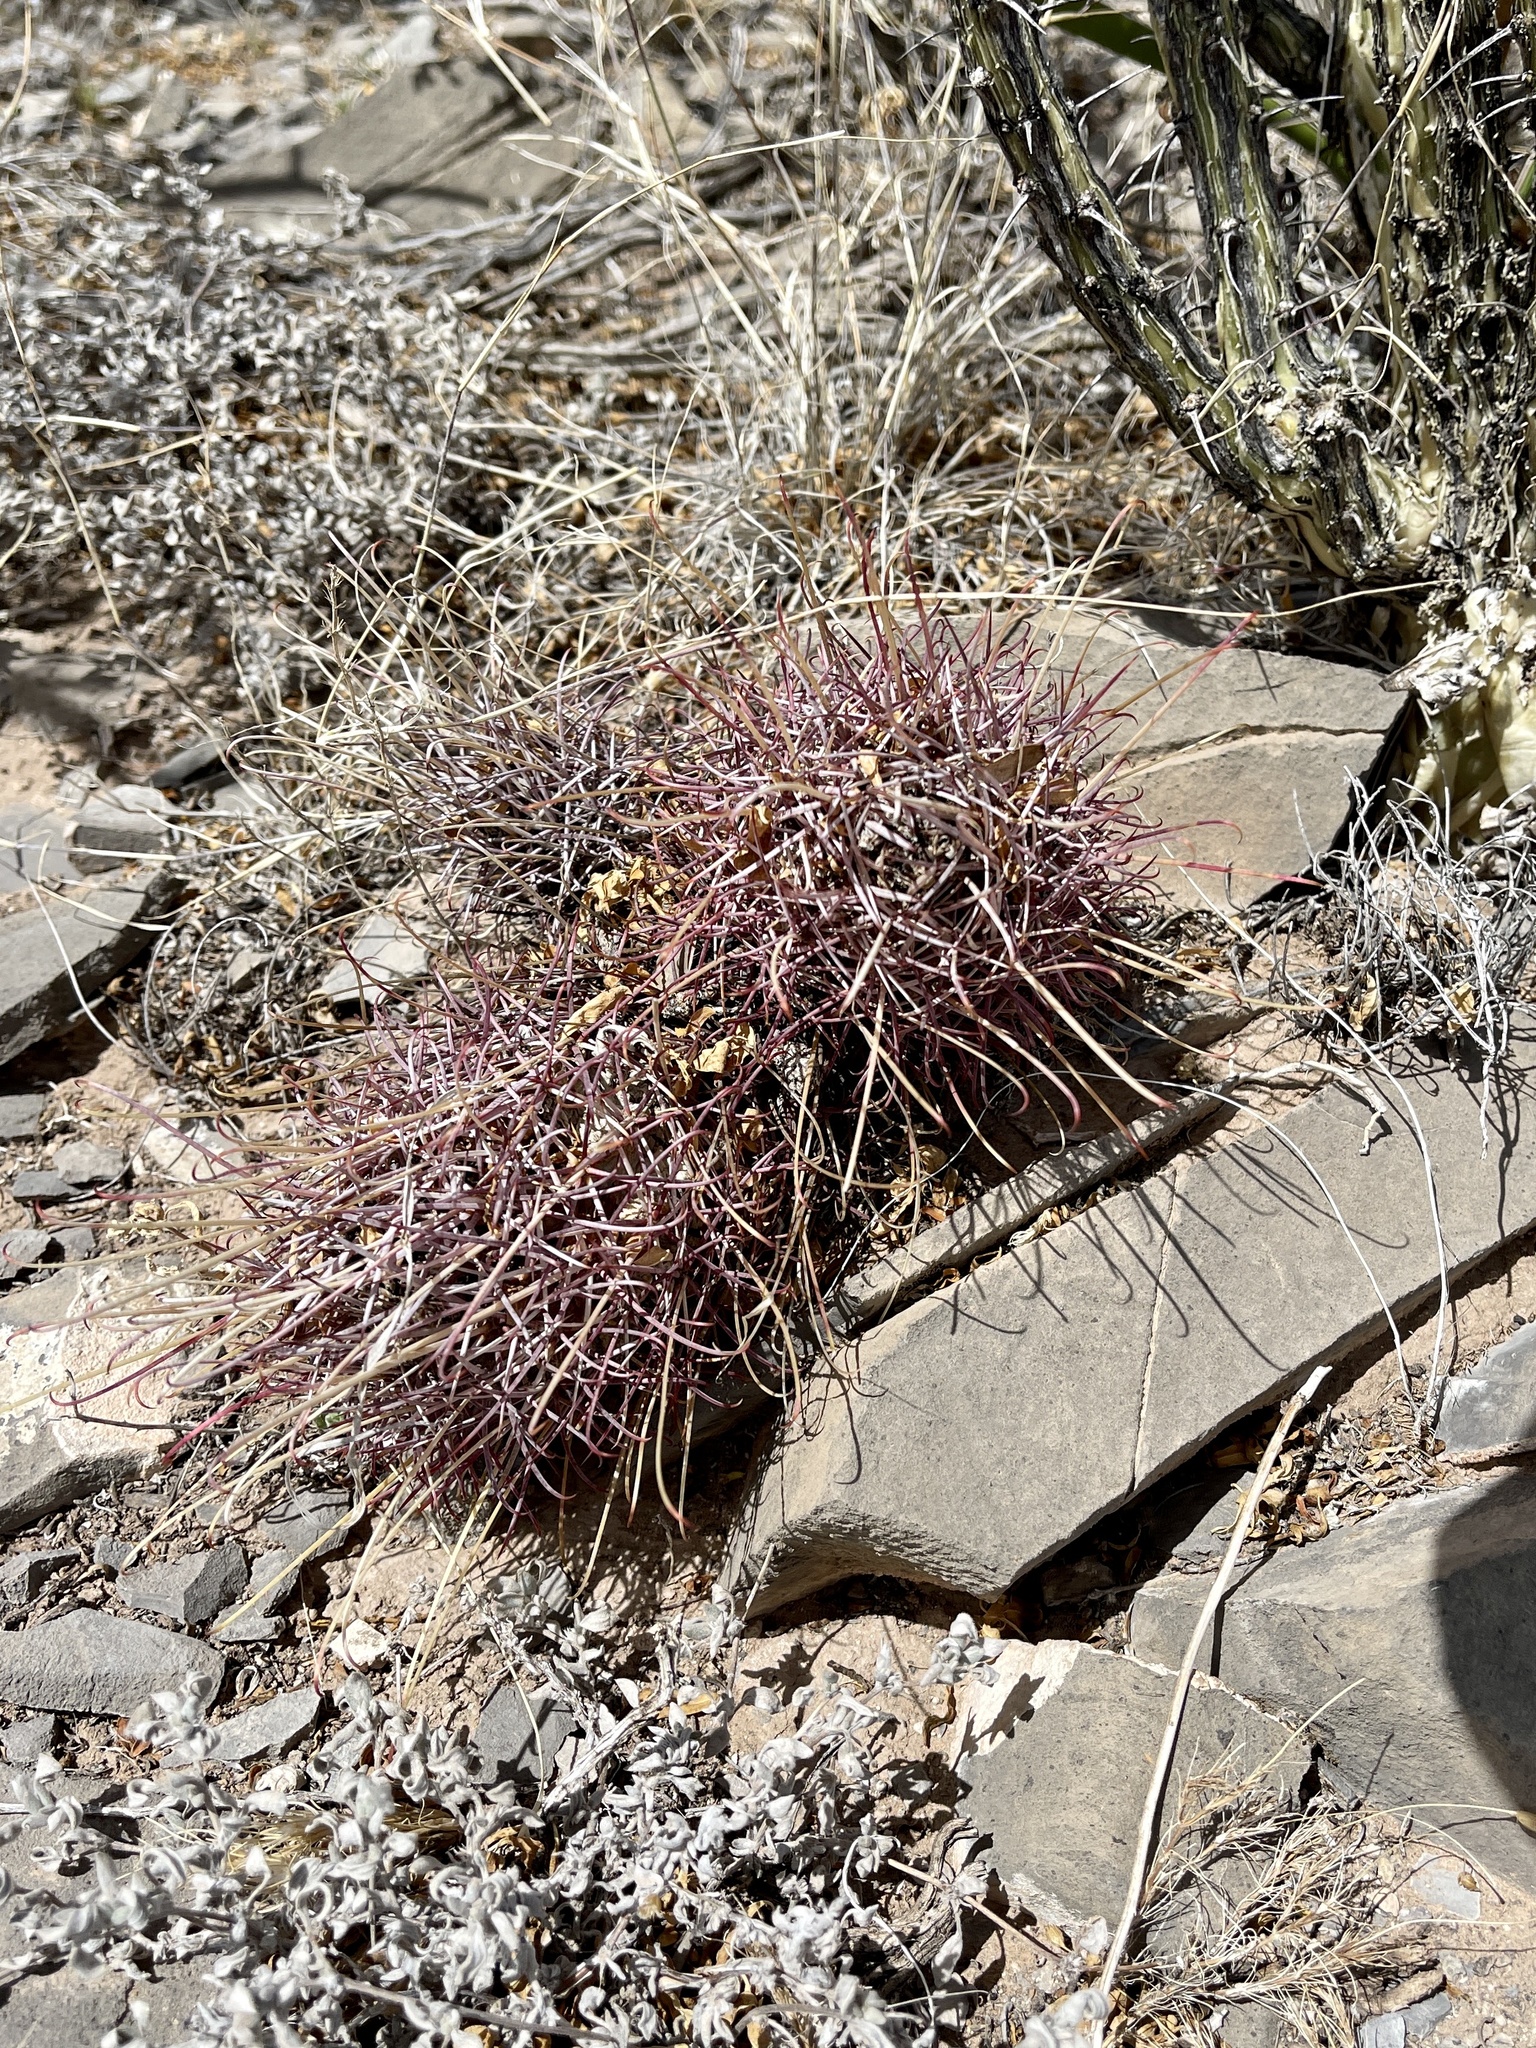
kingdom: Plantae
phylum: Tracheophyta
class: Magnoliopsida
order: Caryophyllales
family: Cactaceae
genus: Ferocactus
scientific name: Ferocactus uncinatus
